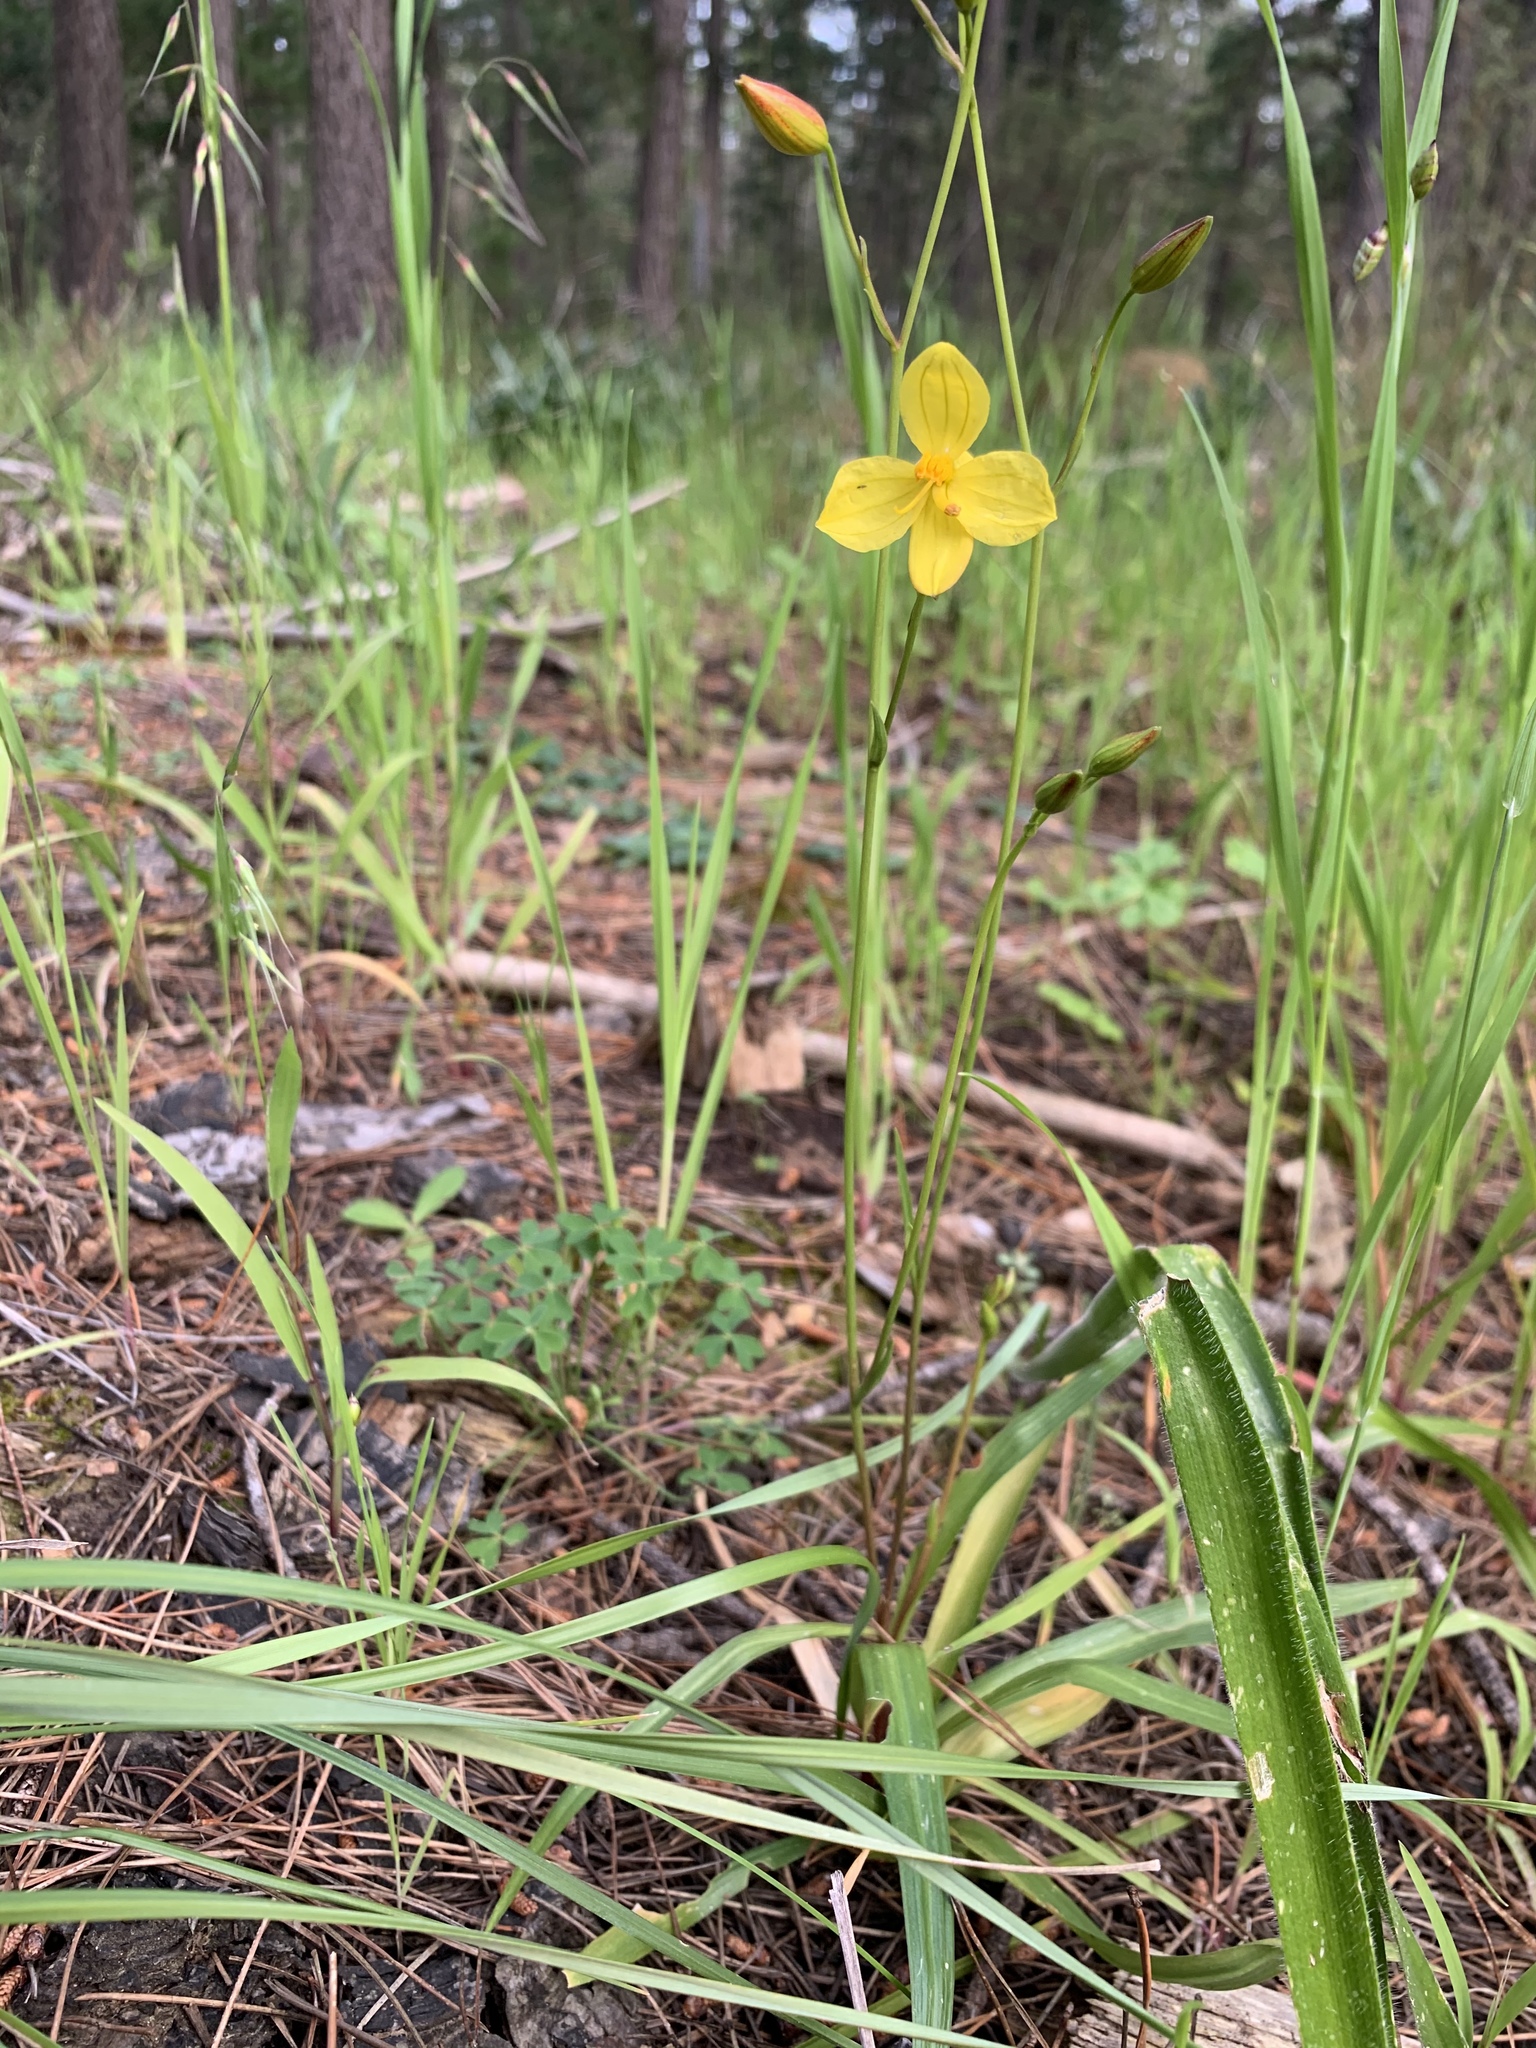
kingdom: Plantae
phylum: Tracheophyta
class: Liliopsida
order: Asparagales
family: Tecophilaeaceae
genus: Cyanella
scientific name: Cyanella lutea
